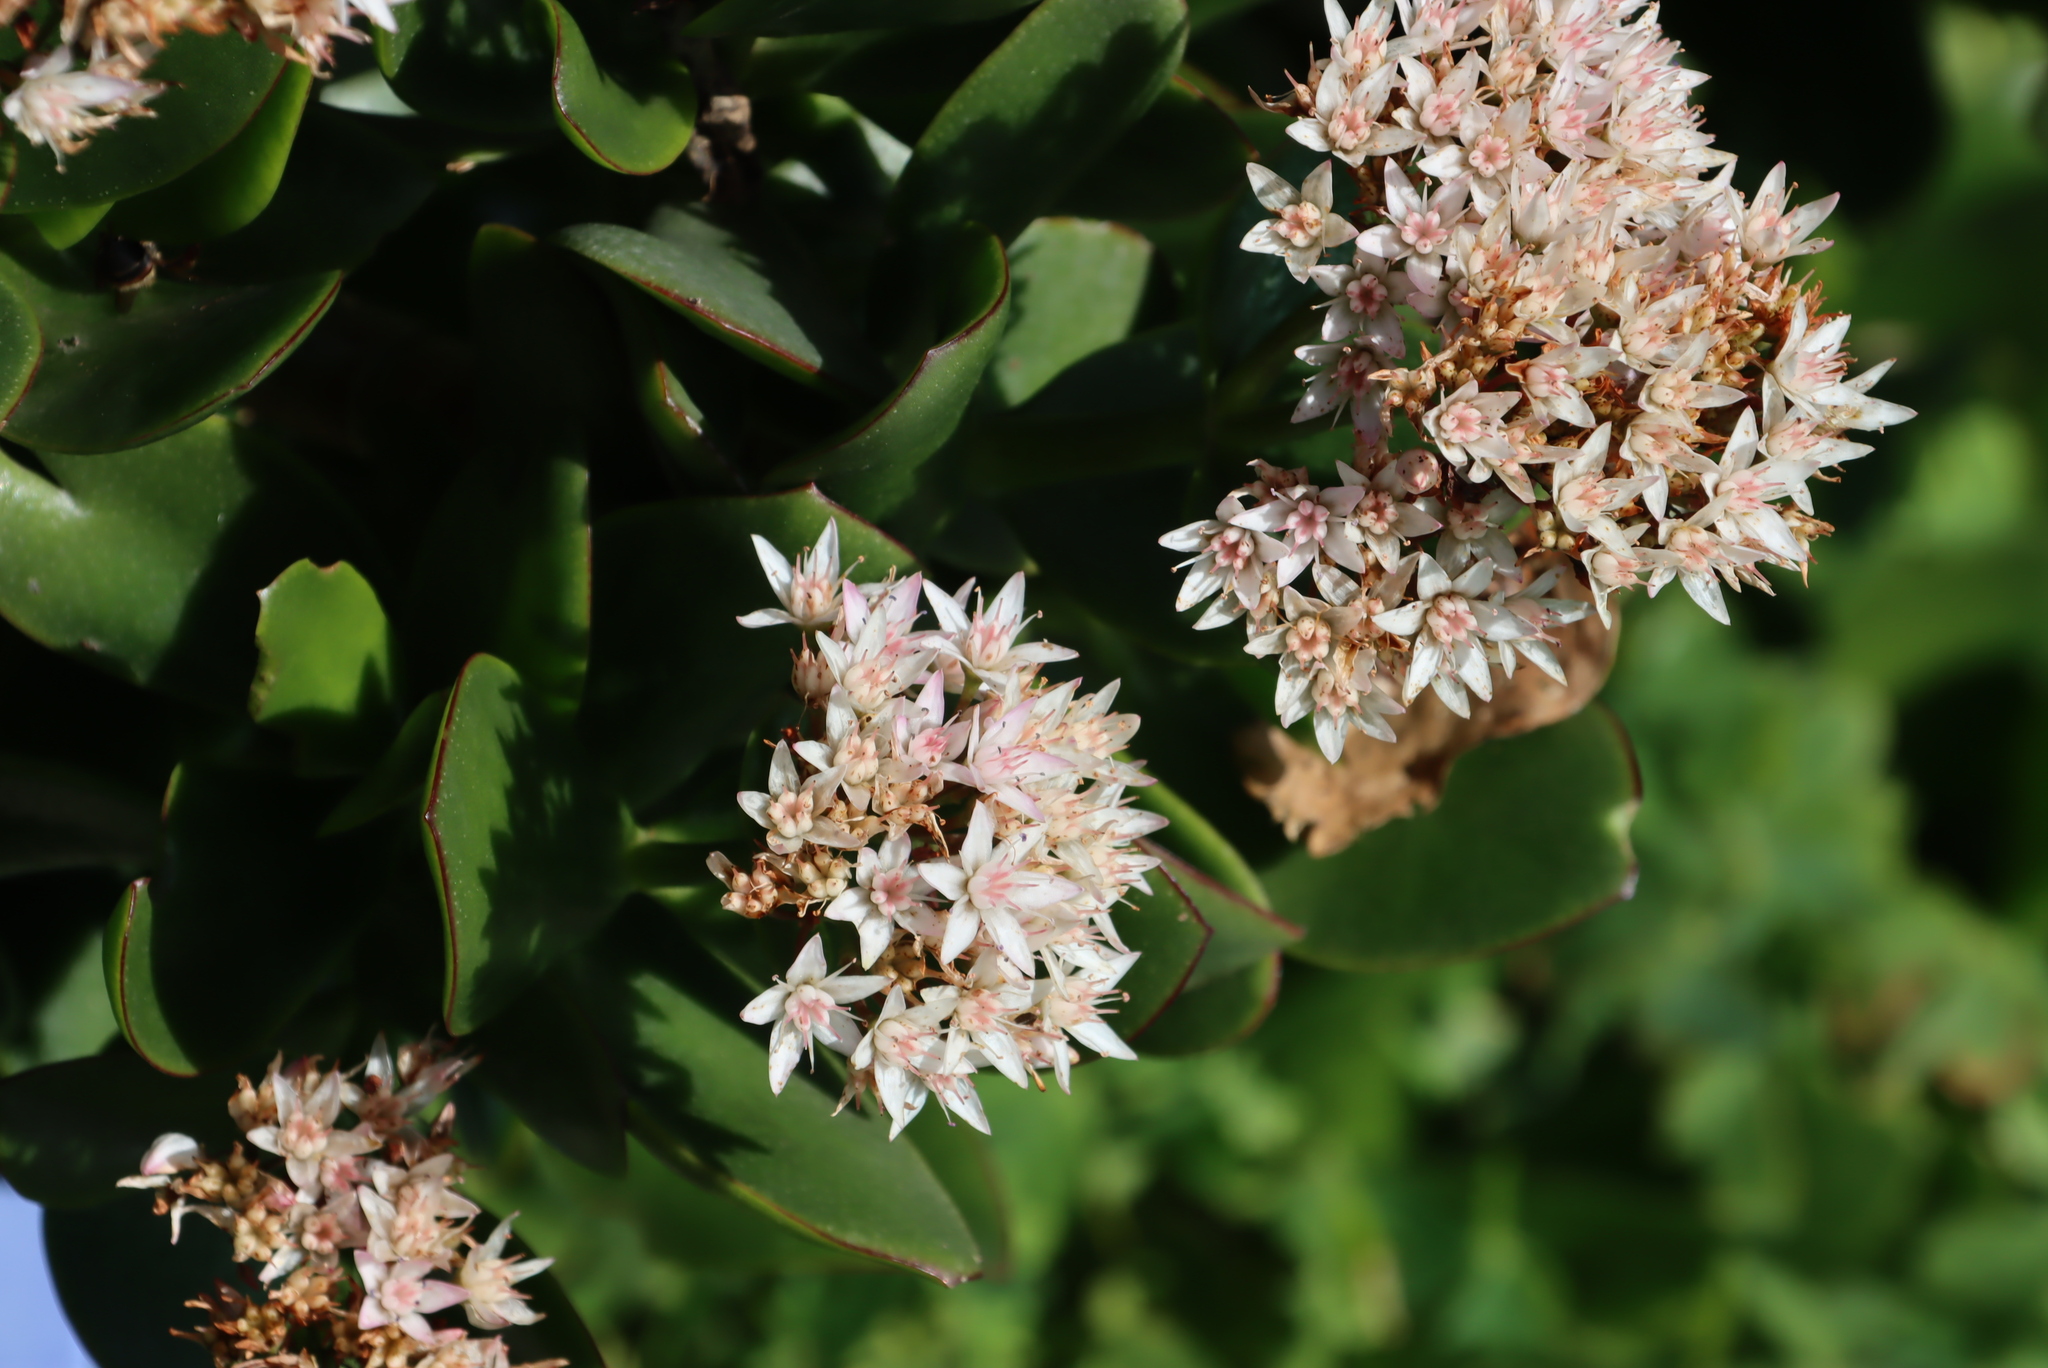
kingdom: Plantae
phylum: Tracheophyta
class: Magnoliopsida
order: Saxifragales
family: Crassulaceae
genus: Crassula
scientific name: Crassula ovata
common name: Jade plant
